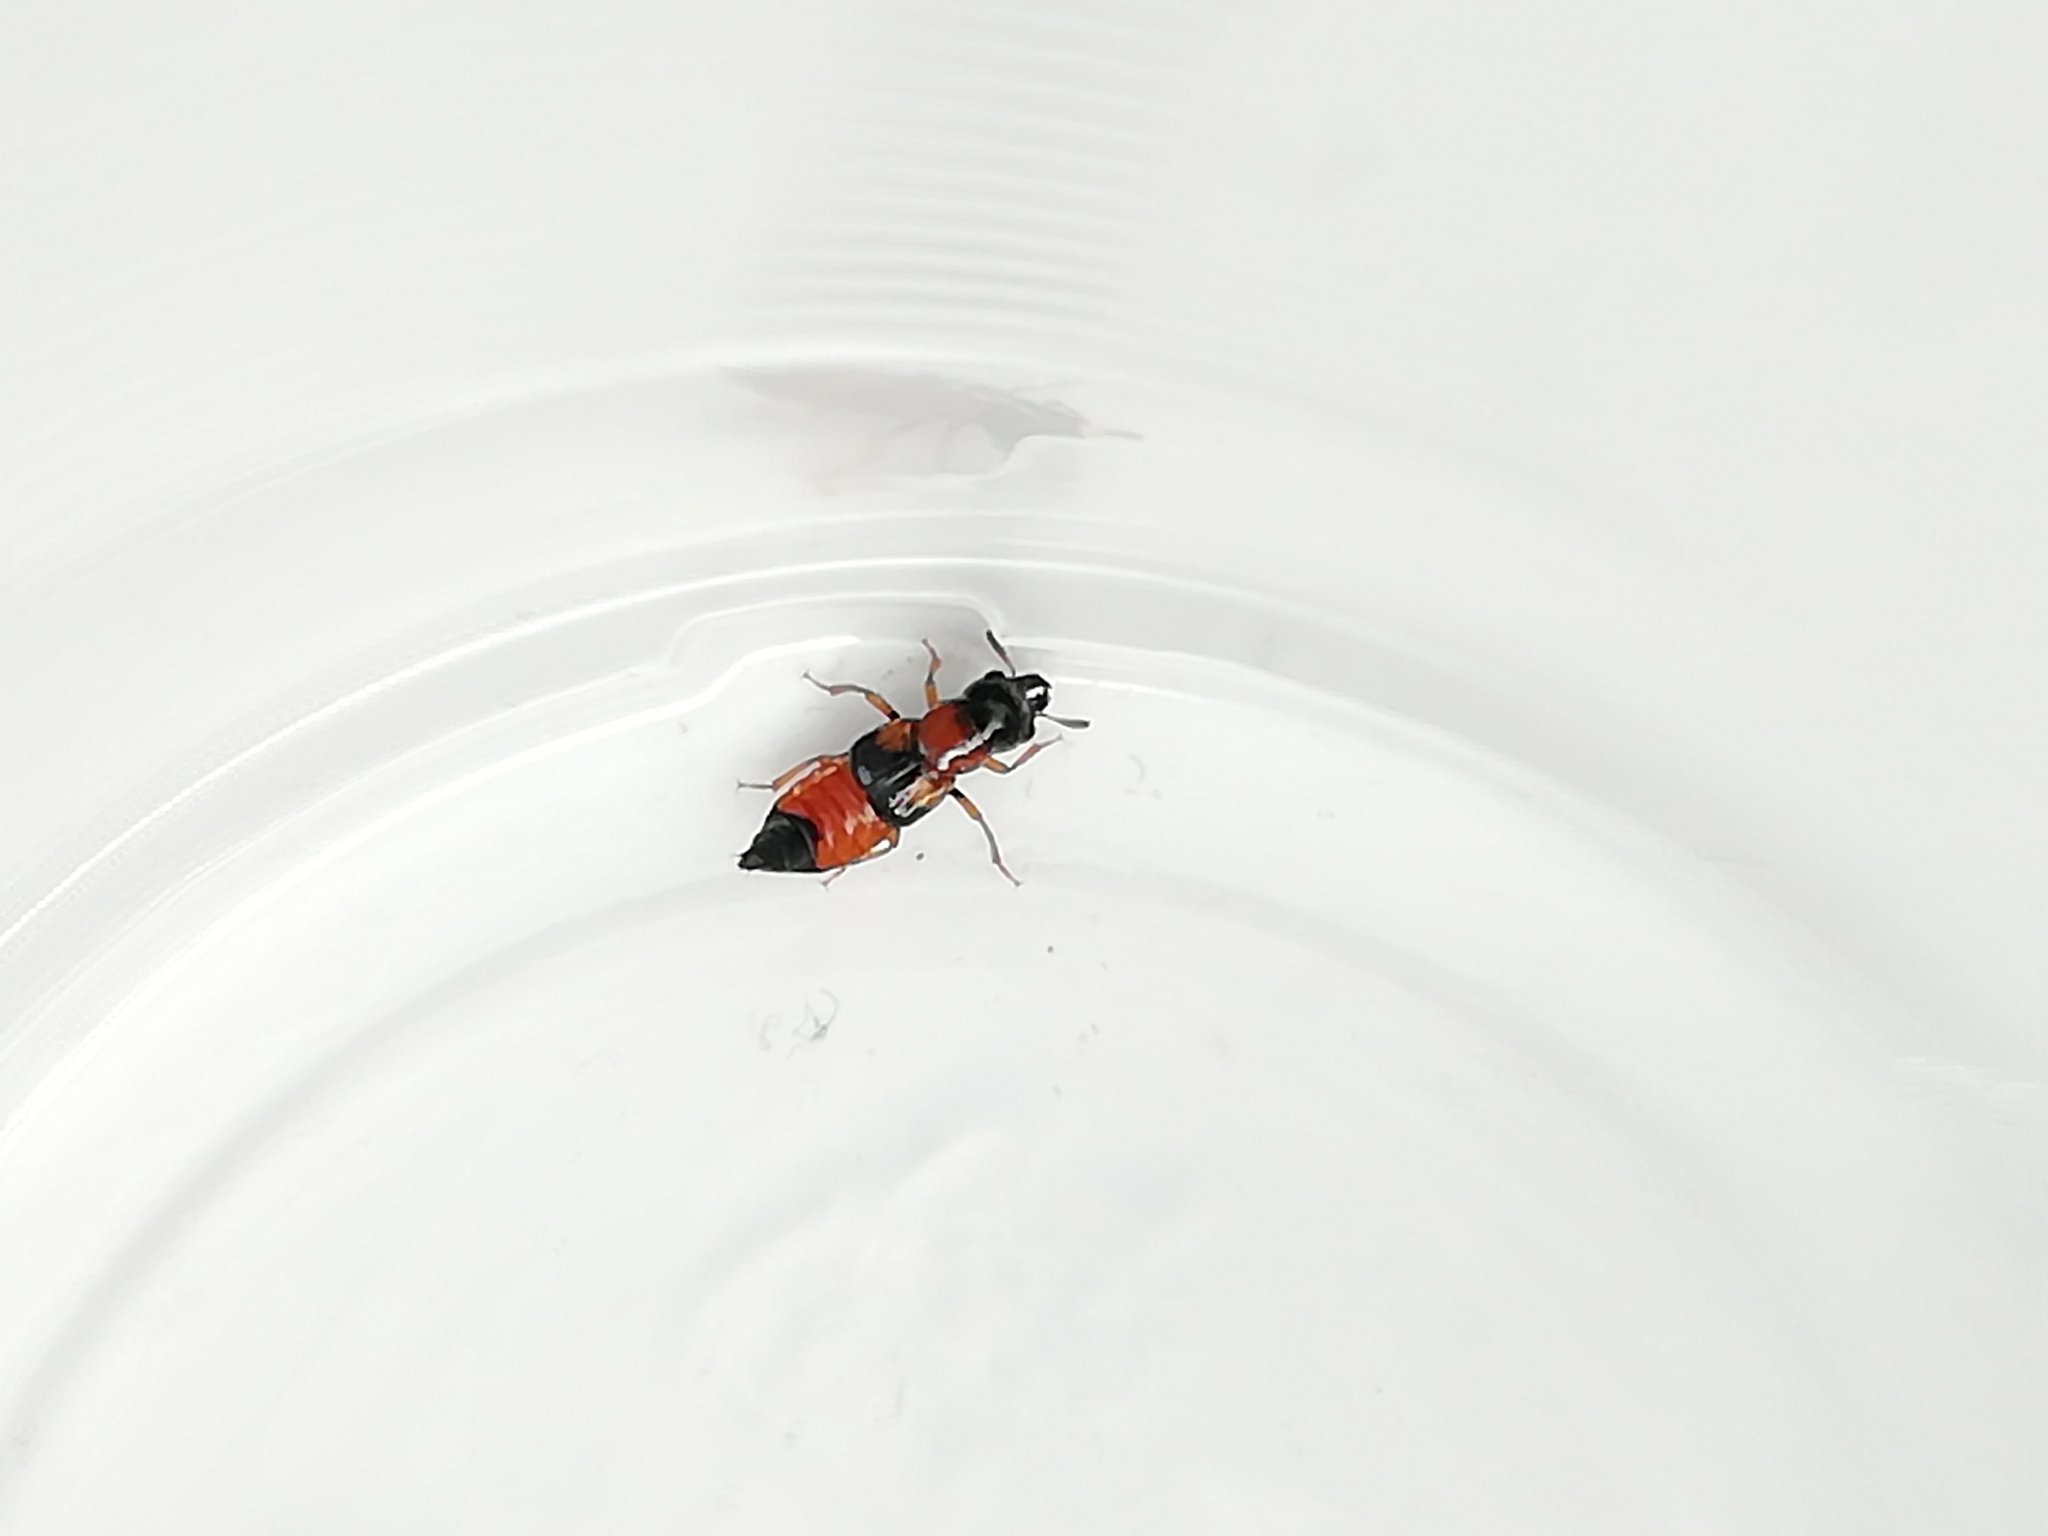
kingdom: Animalia
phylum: Arthropoda
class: Insecta
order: Coleoptera
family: Staphylinidae
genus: Oxyporus
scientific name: Oxyporus rufus
